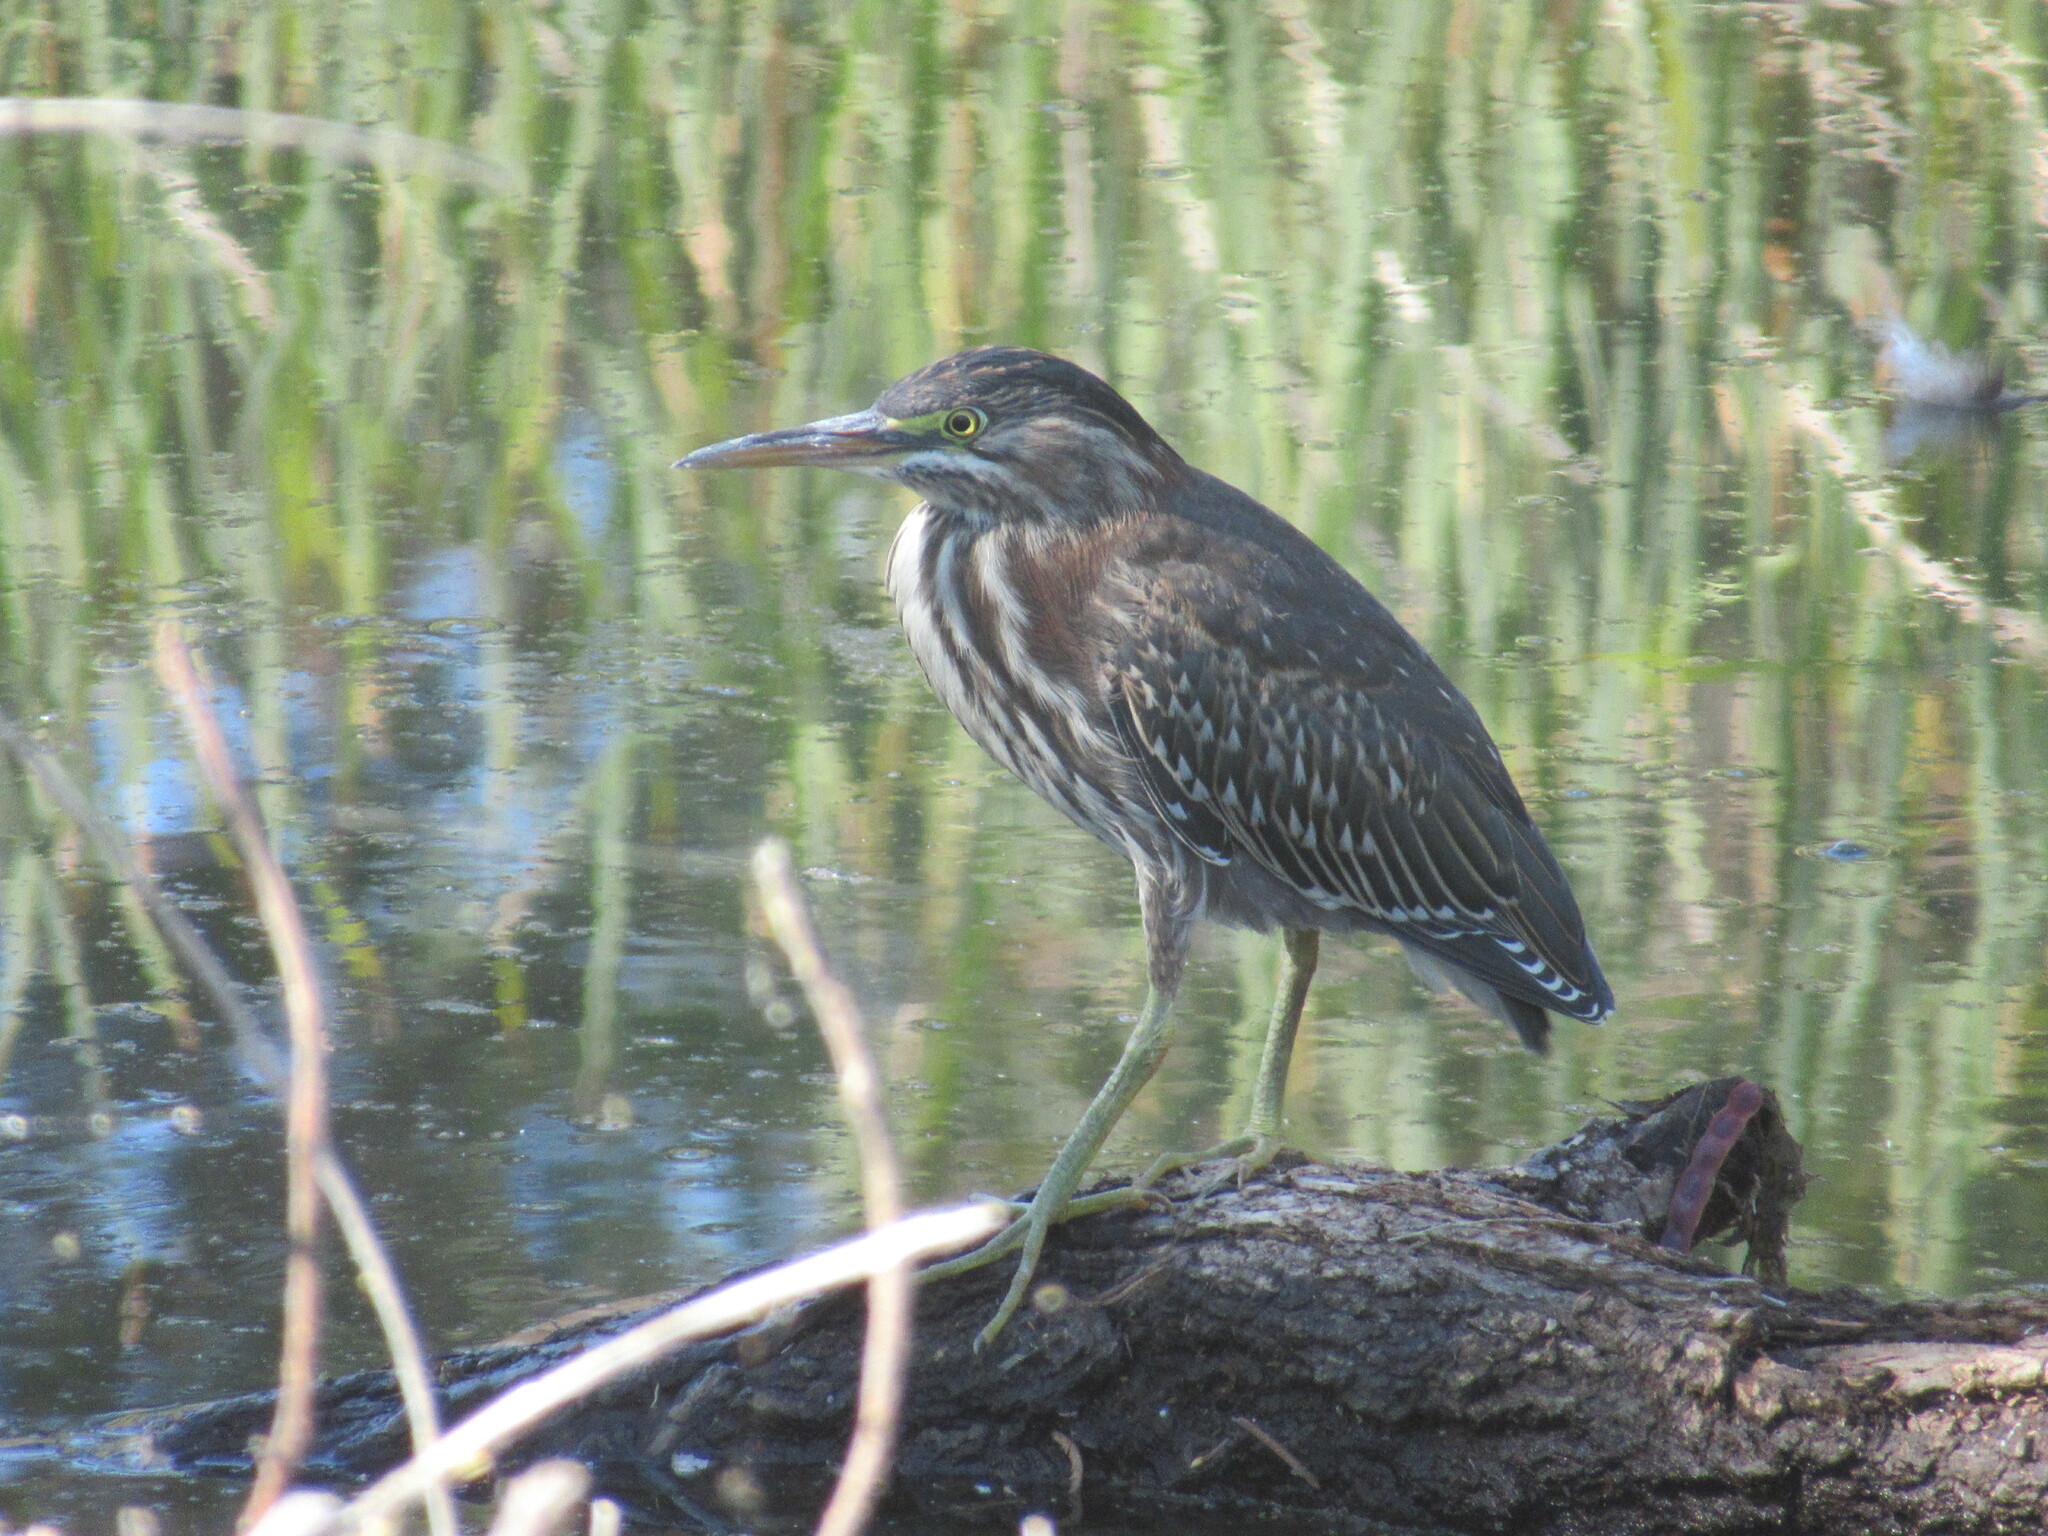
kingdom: Animalia
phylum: Chordata
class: Aves
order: Pelecaniformes
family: Ardeidae
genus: Butorides
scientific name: Butorides virescens
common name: Green heron
